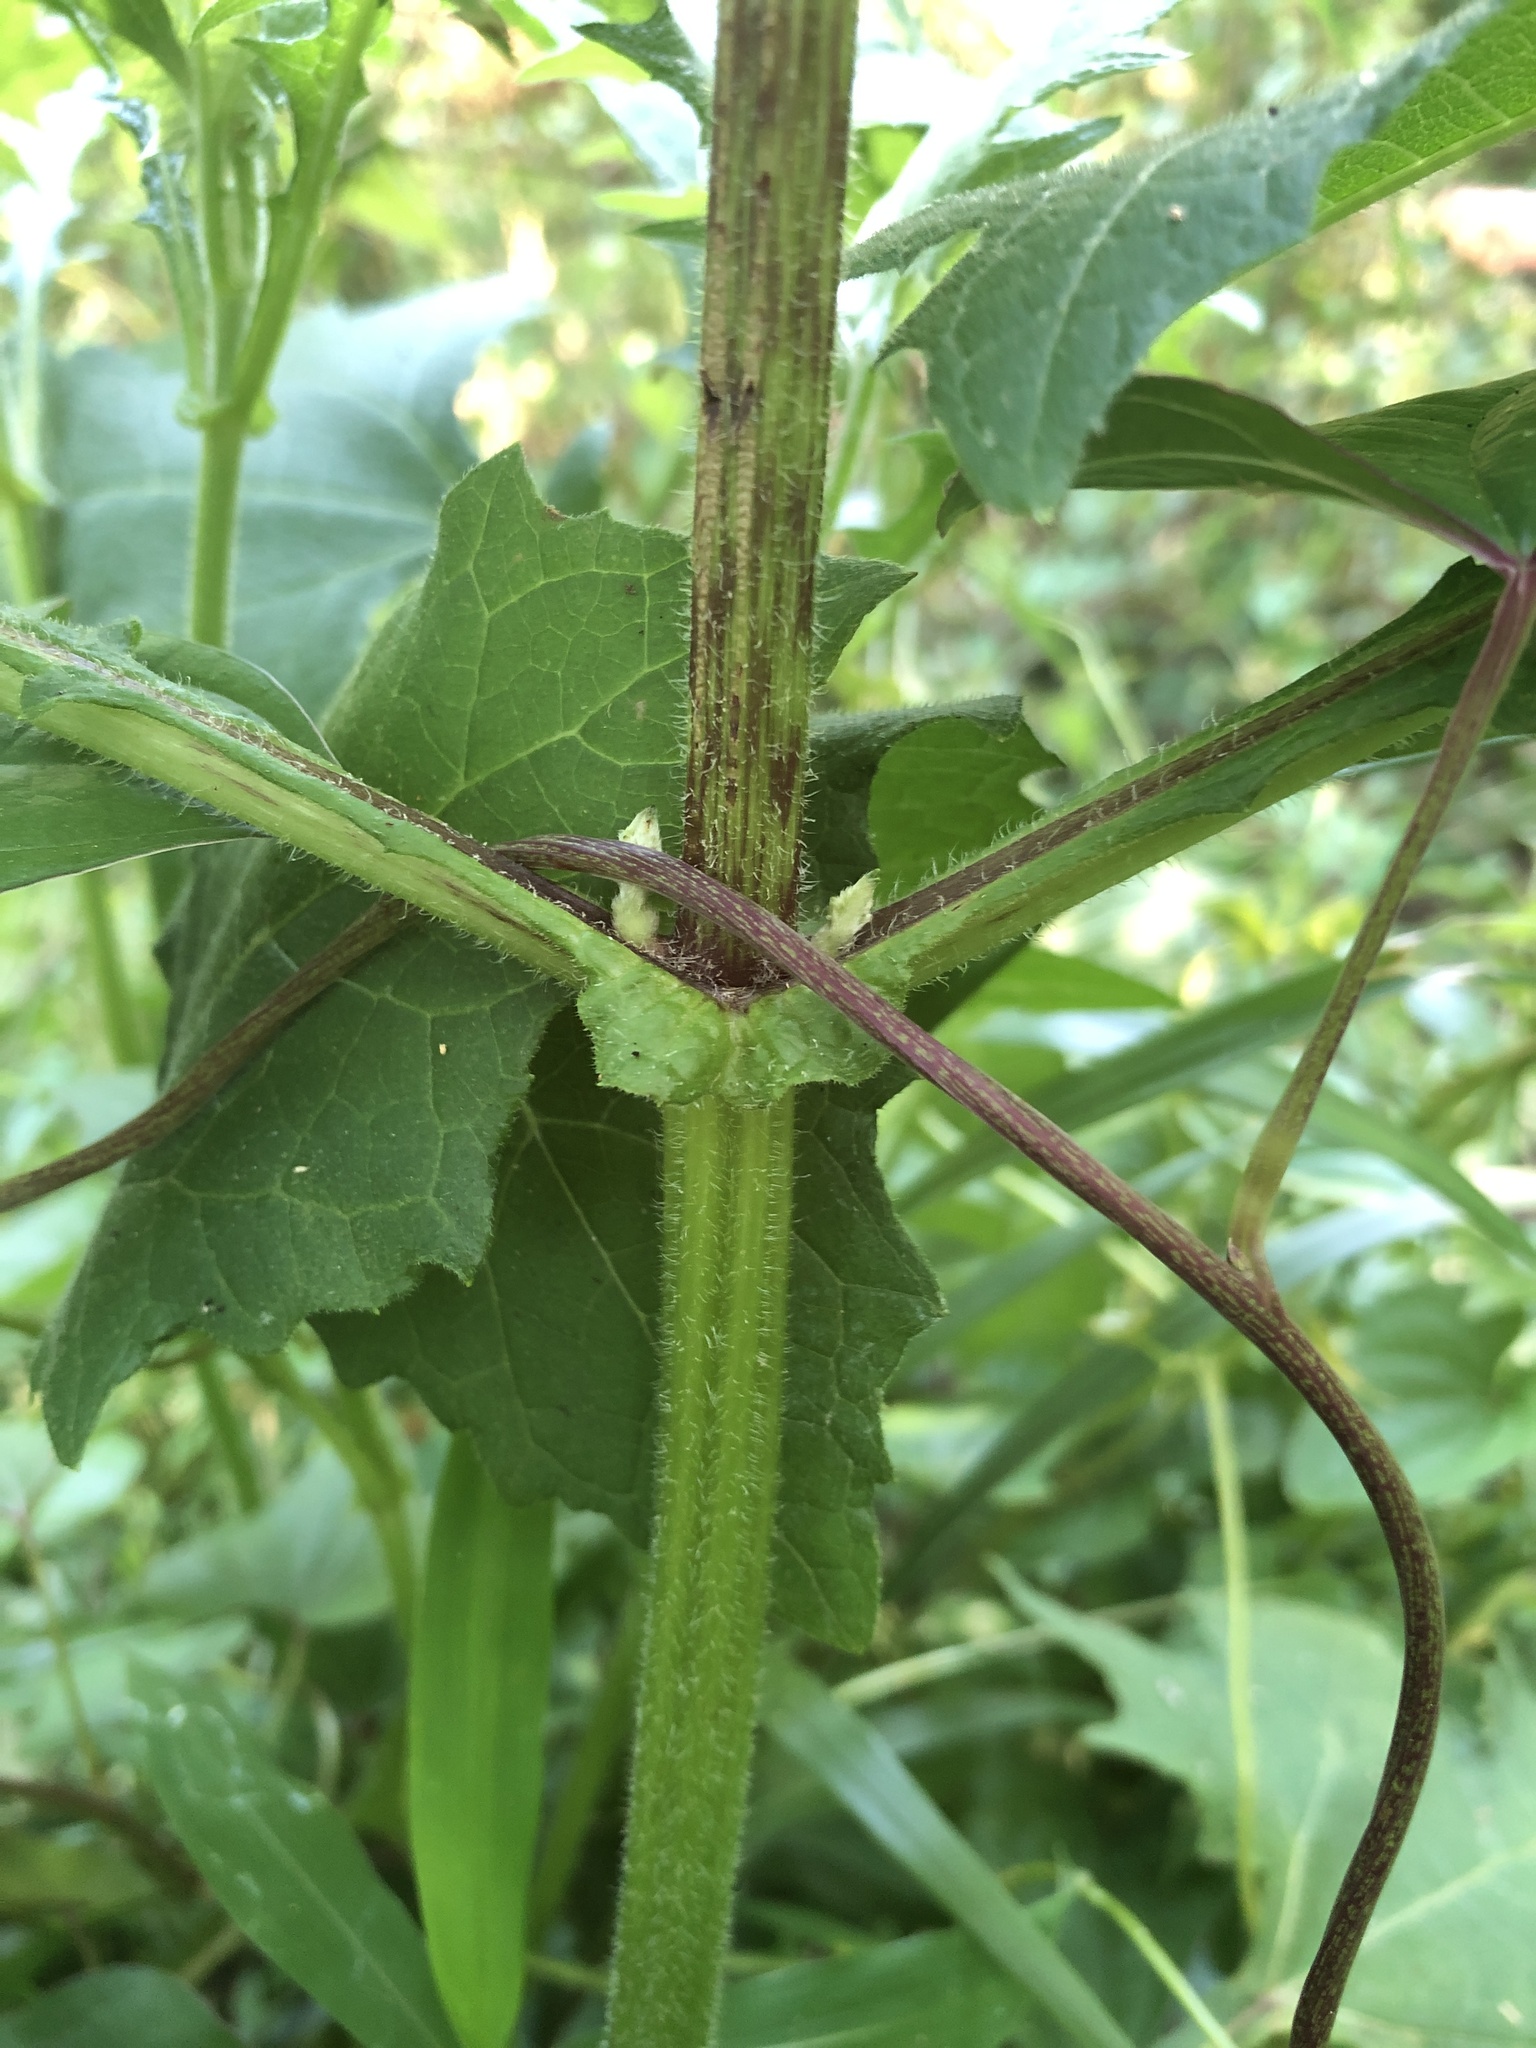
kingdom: Plantae
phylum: Tracheophyta
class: Magnoliopsida
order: Asterales
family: Asteraceae
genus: Smallanthus
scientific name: Smallanthus uvedalia
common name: Bear's-foot
